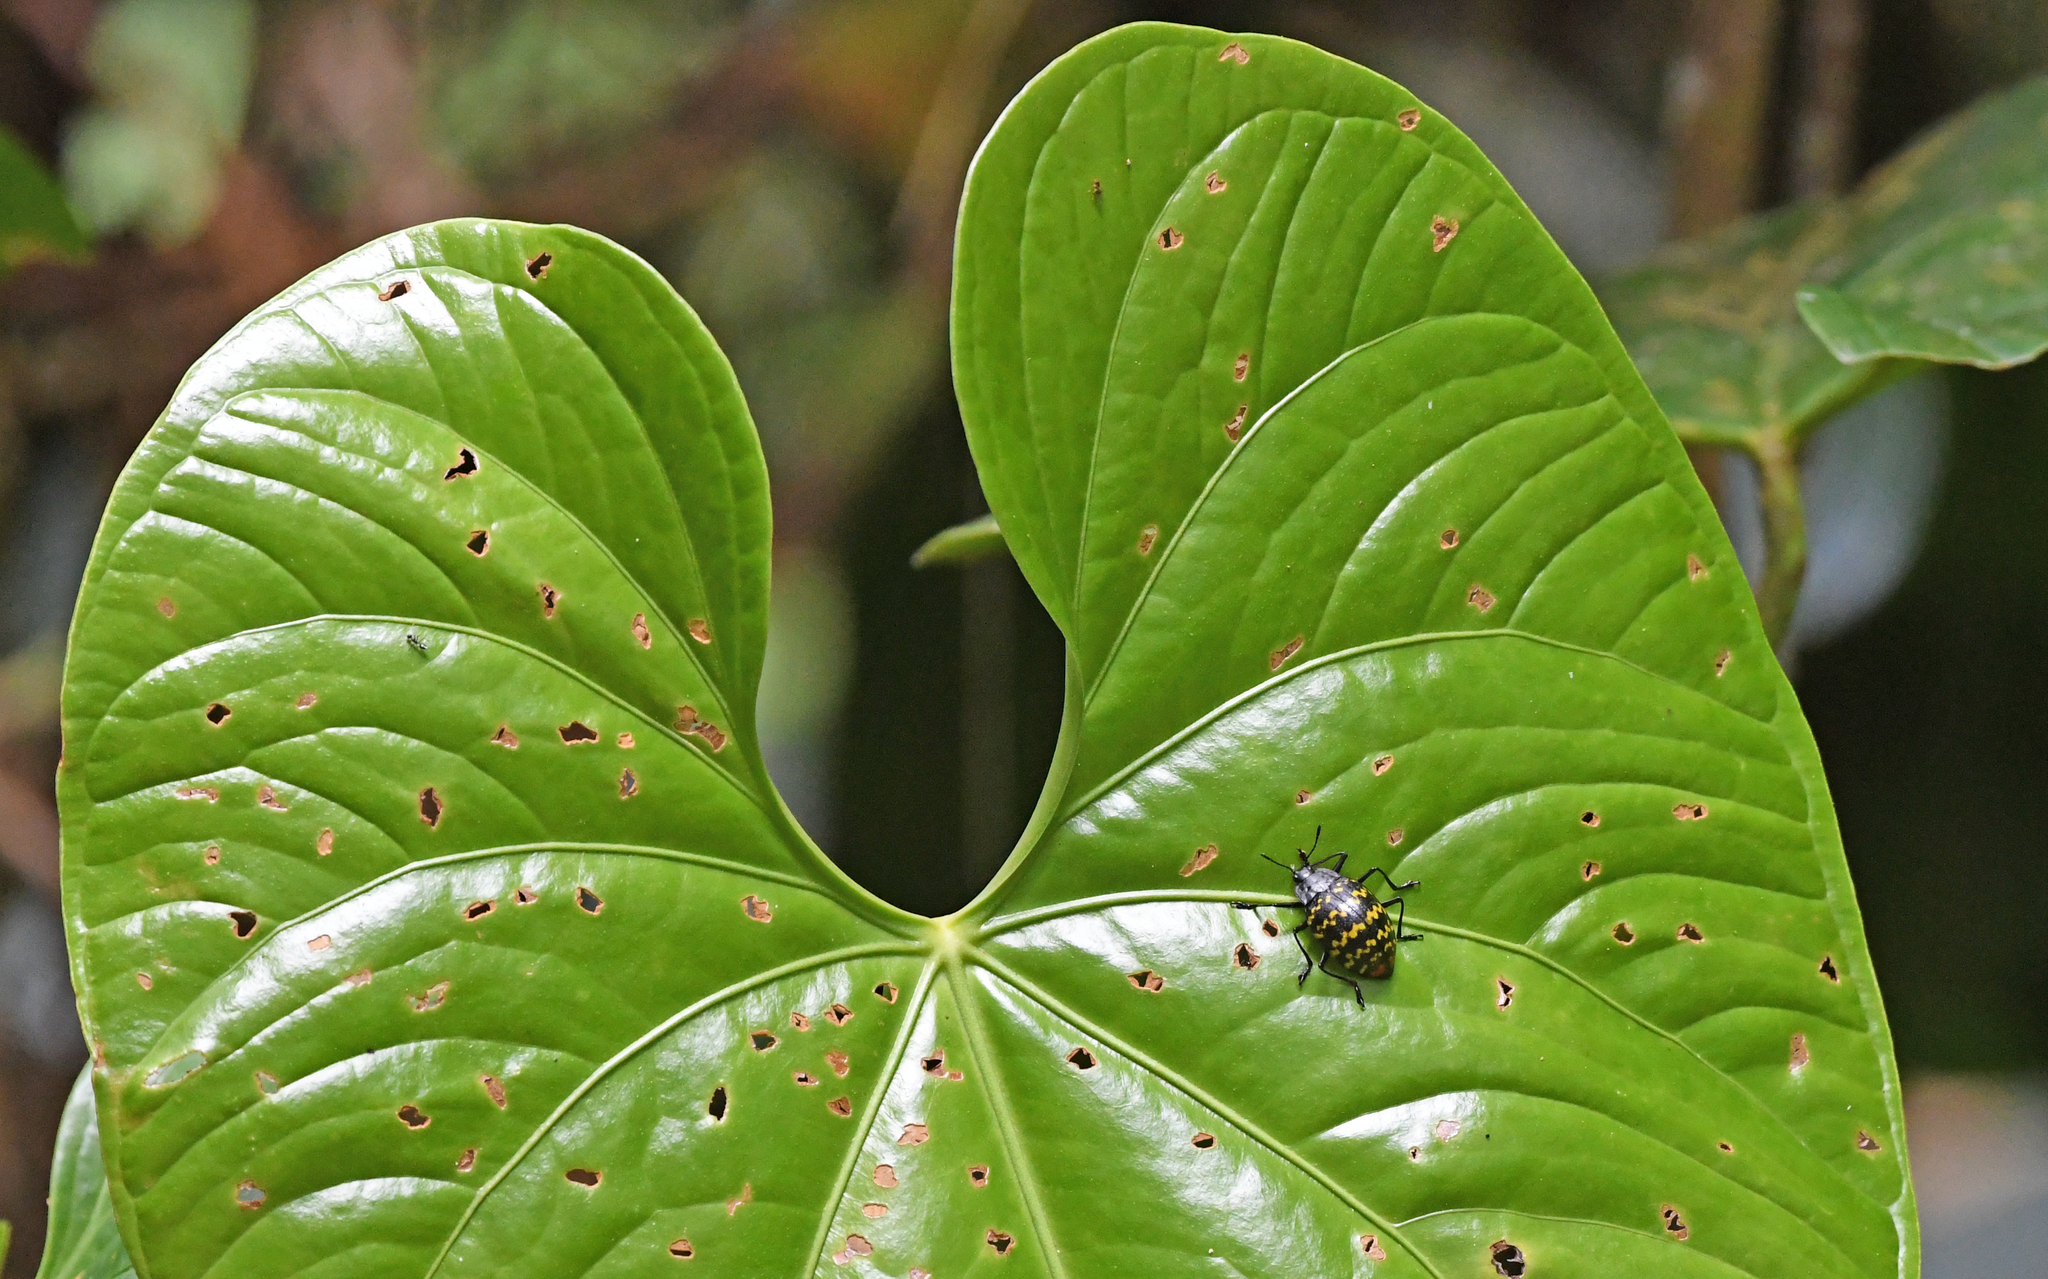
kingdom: Animalia
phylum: Arthropoda
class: Insecta
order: Coleoptera
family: Erotylidae
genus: Erotylus
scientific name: Erotylus
